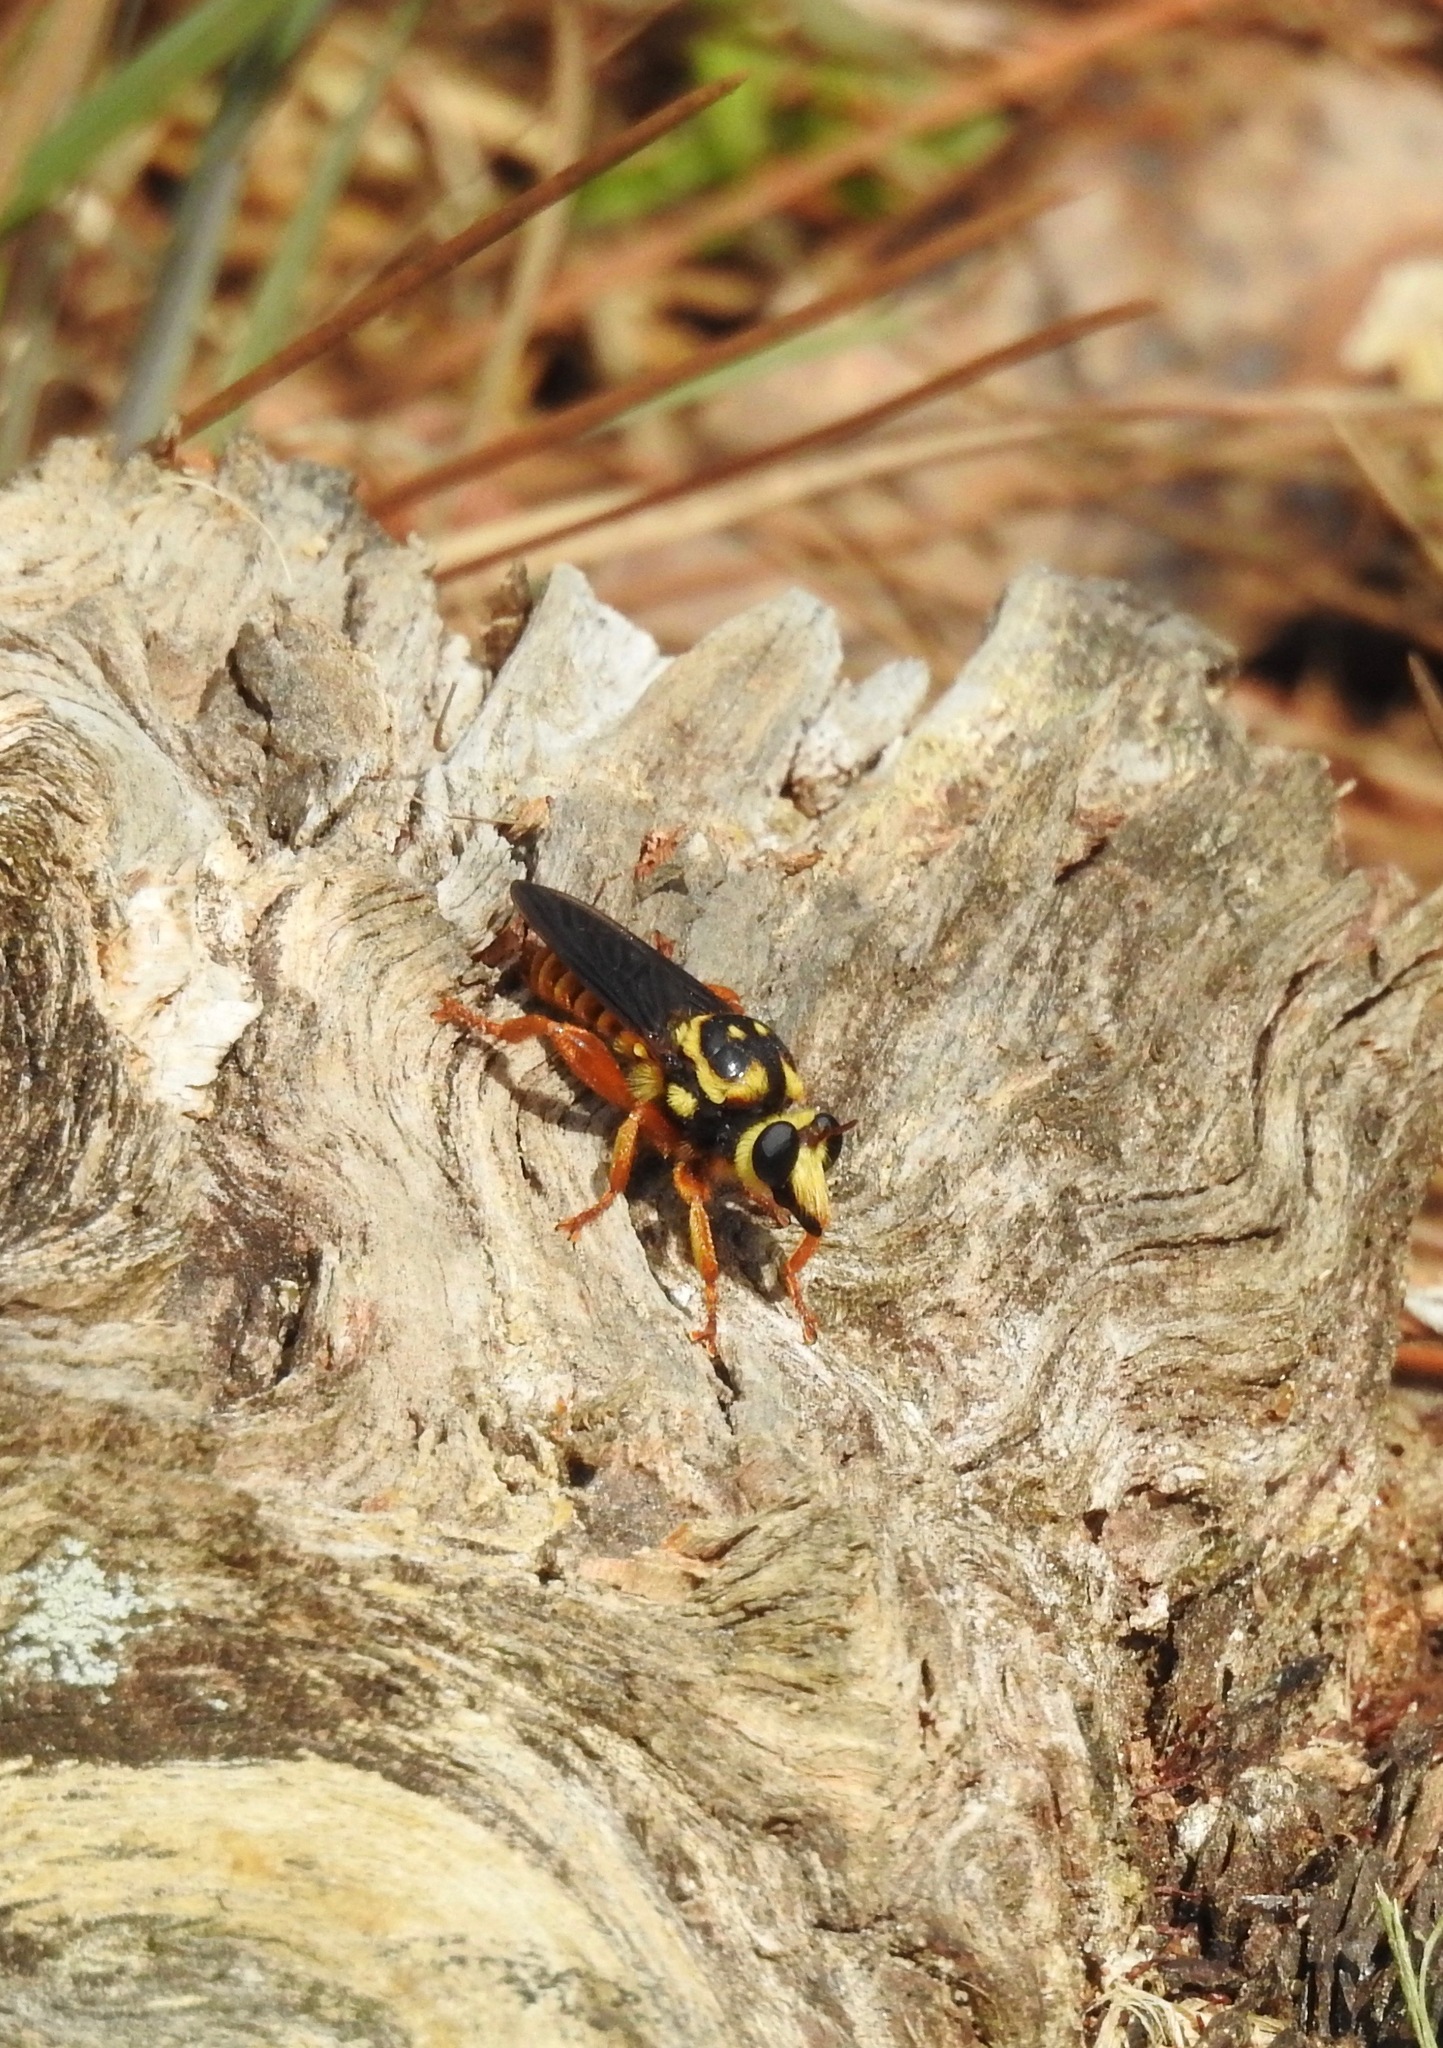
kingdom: Animalia
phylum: Arthropoda
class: Insecta
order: Diptera
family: Asilidae
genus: Laphria
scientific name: Laphria saffrana
